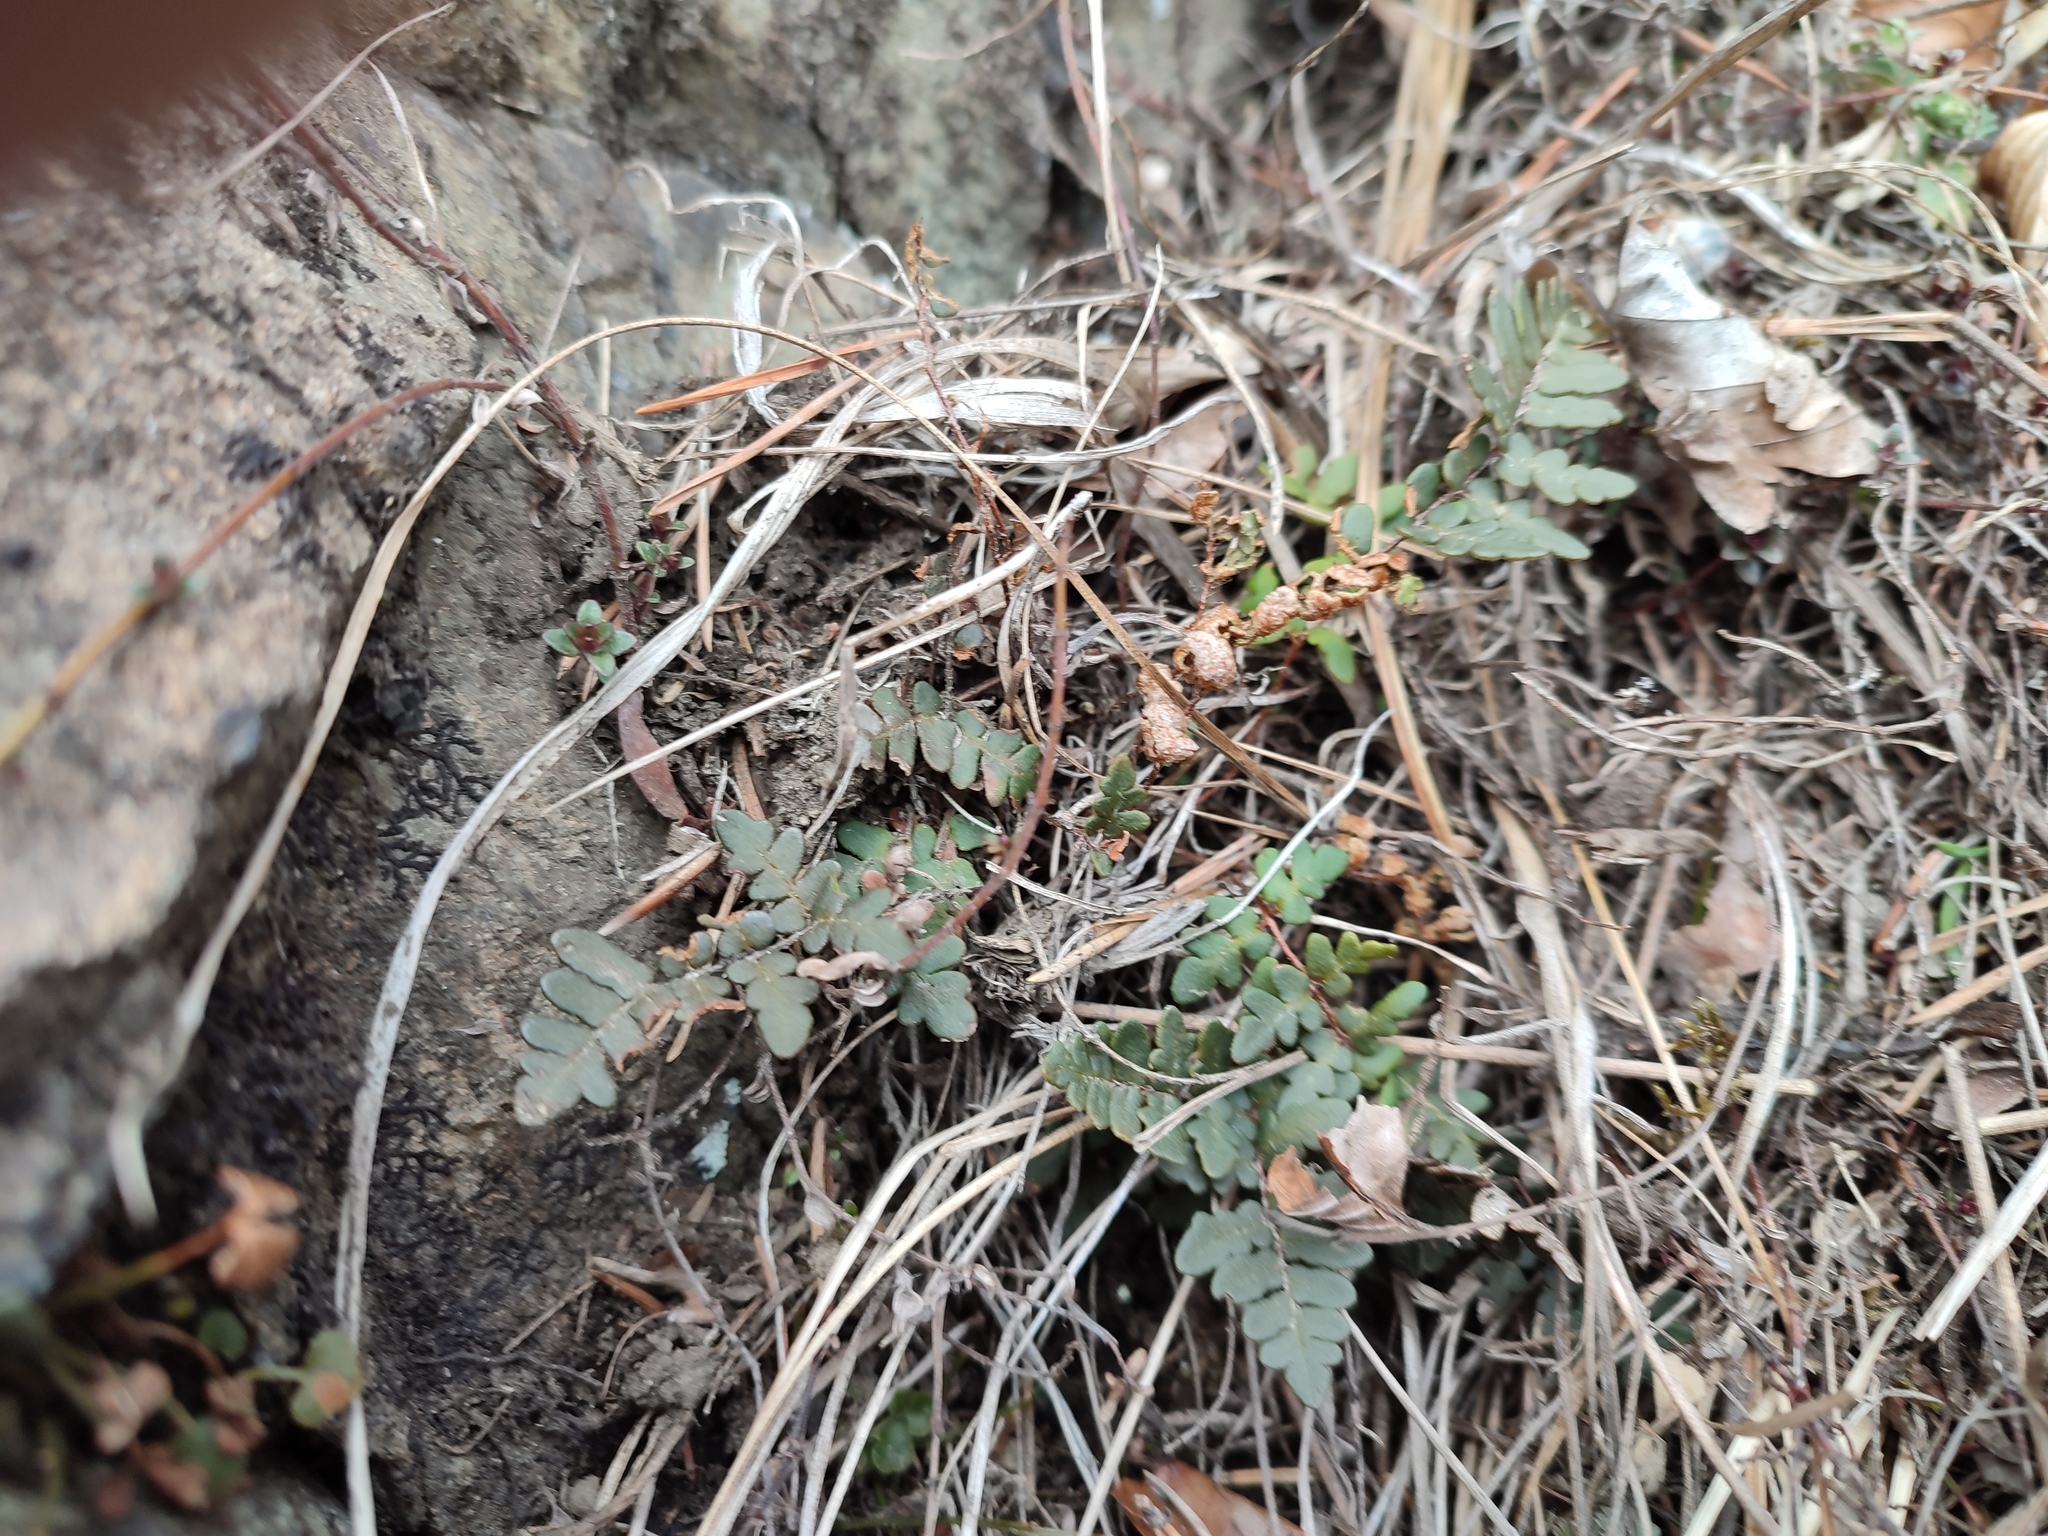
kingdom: Plantae
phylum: Tracheophyta
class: Polypodiopsida
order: Polypodiales
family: Pteridaceae
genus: Paragymnopteris
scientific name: Paragymnopteris marantae
